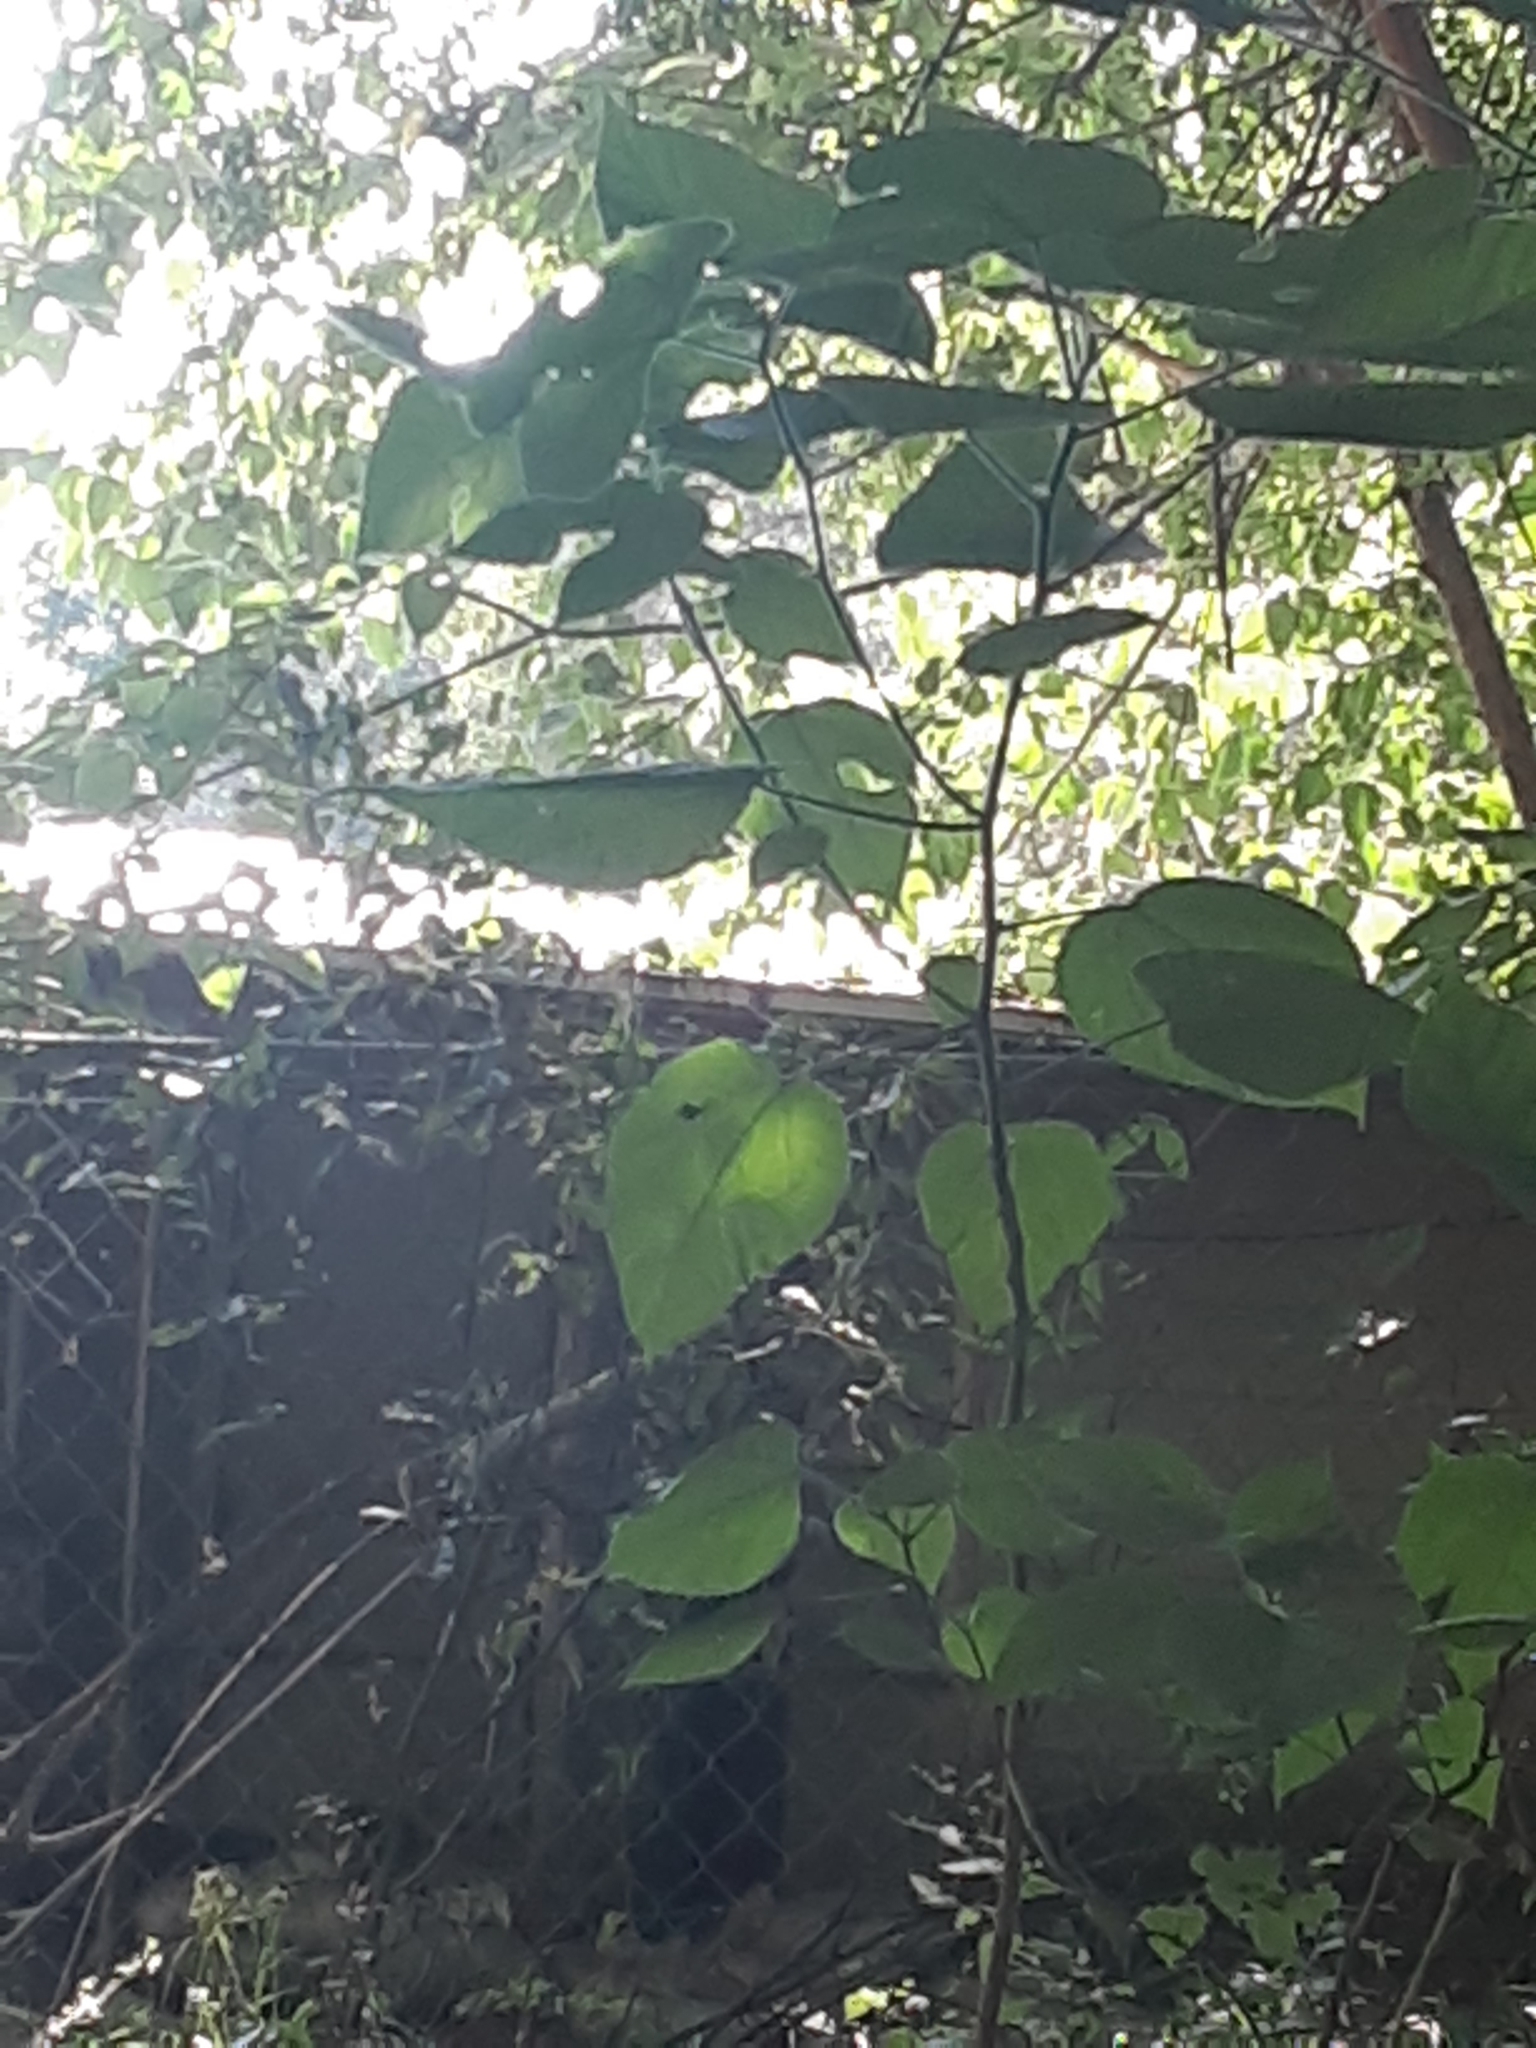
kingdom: Plantae
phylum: Tracheophyta
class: Magnoliopsida
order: Rosales
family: Moraceae
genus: Broussonetia
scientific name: Broussonetia papyrifera
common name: Paper mulberry
